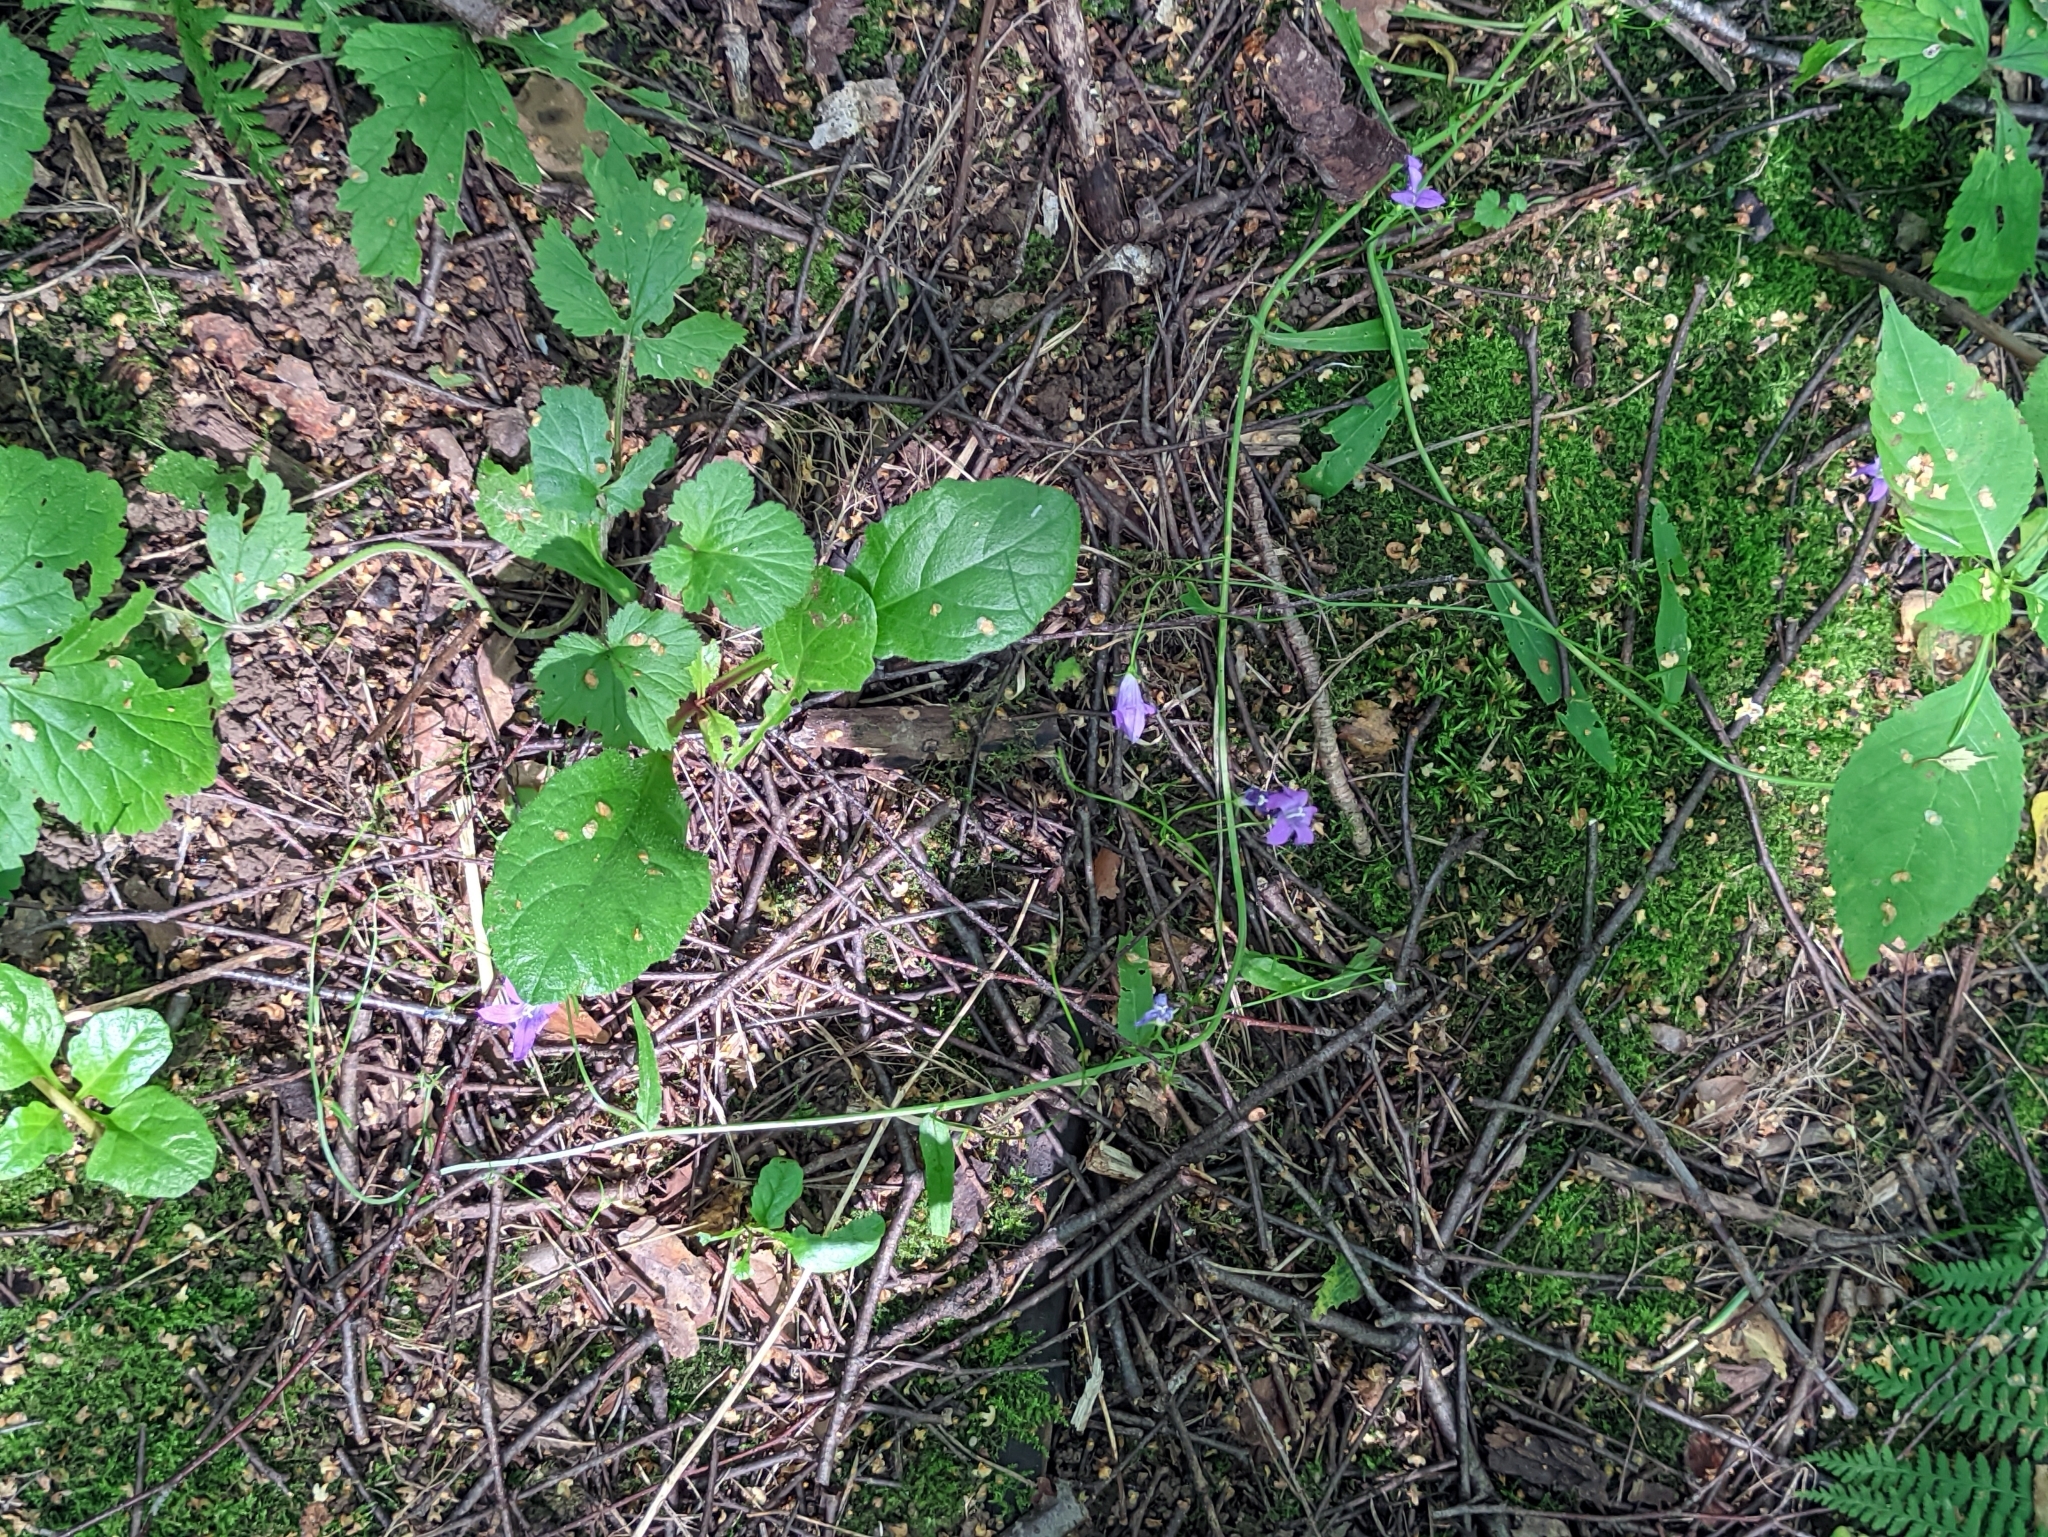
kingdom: Plantae
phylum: Tracheophyta
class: Magnoliopsida
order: Asterales
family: Campanulaceae
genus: Campanula
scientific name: Campanula patula
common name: Spreading bellflower
